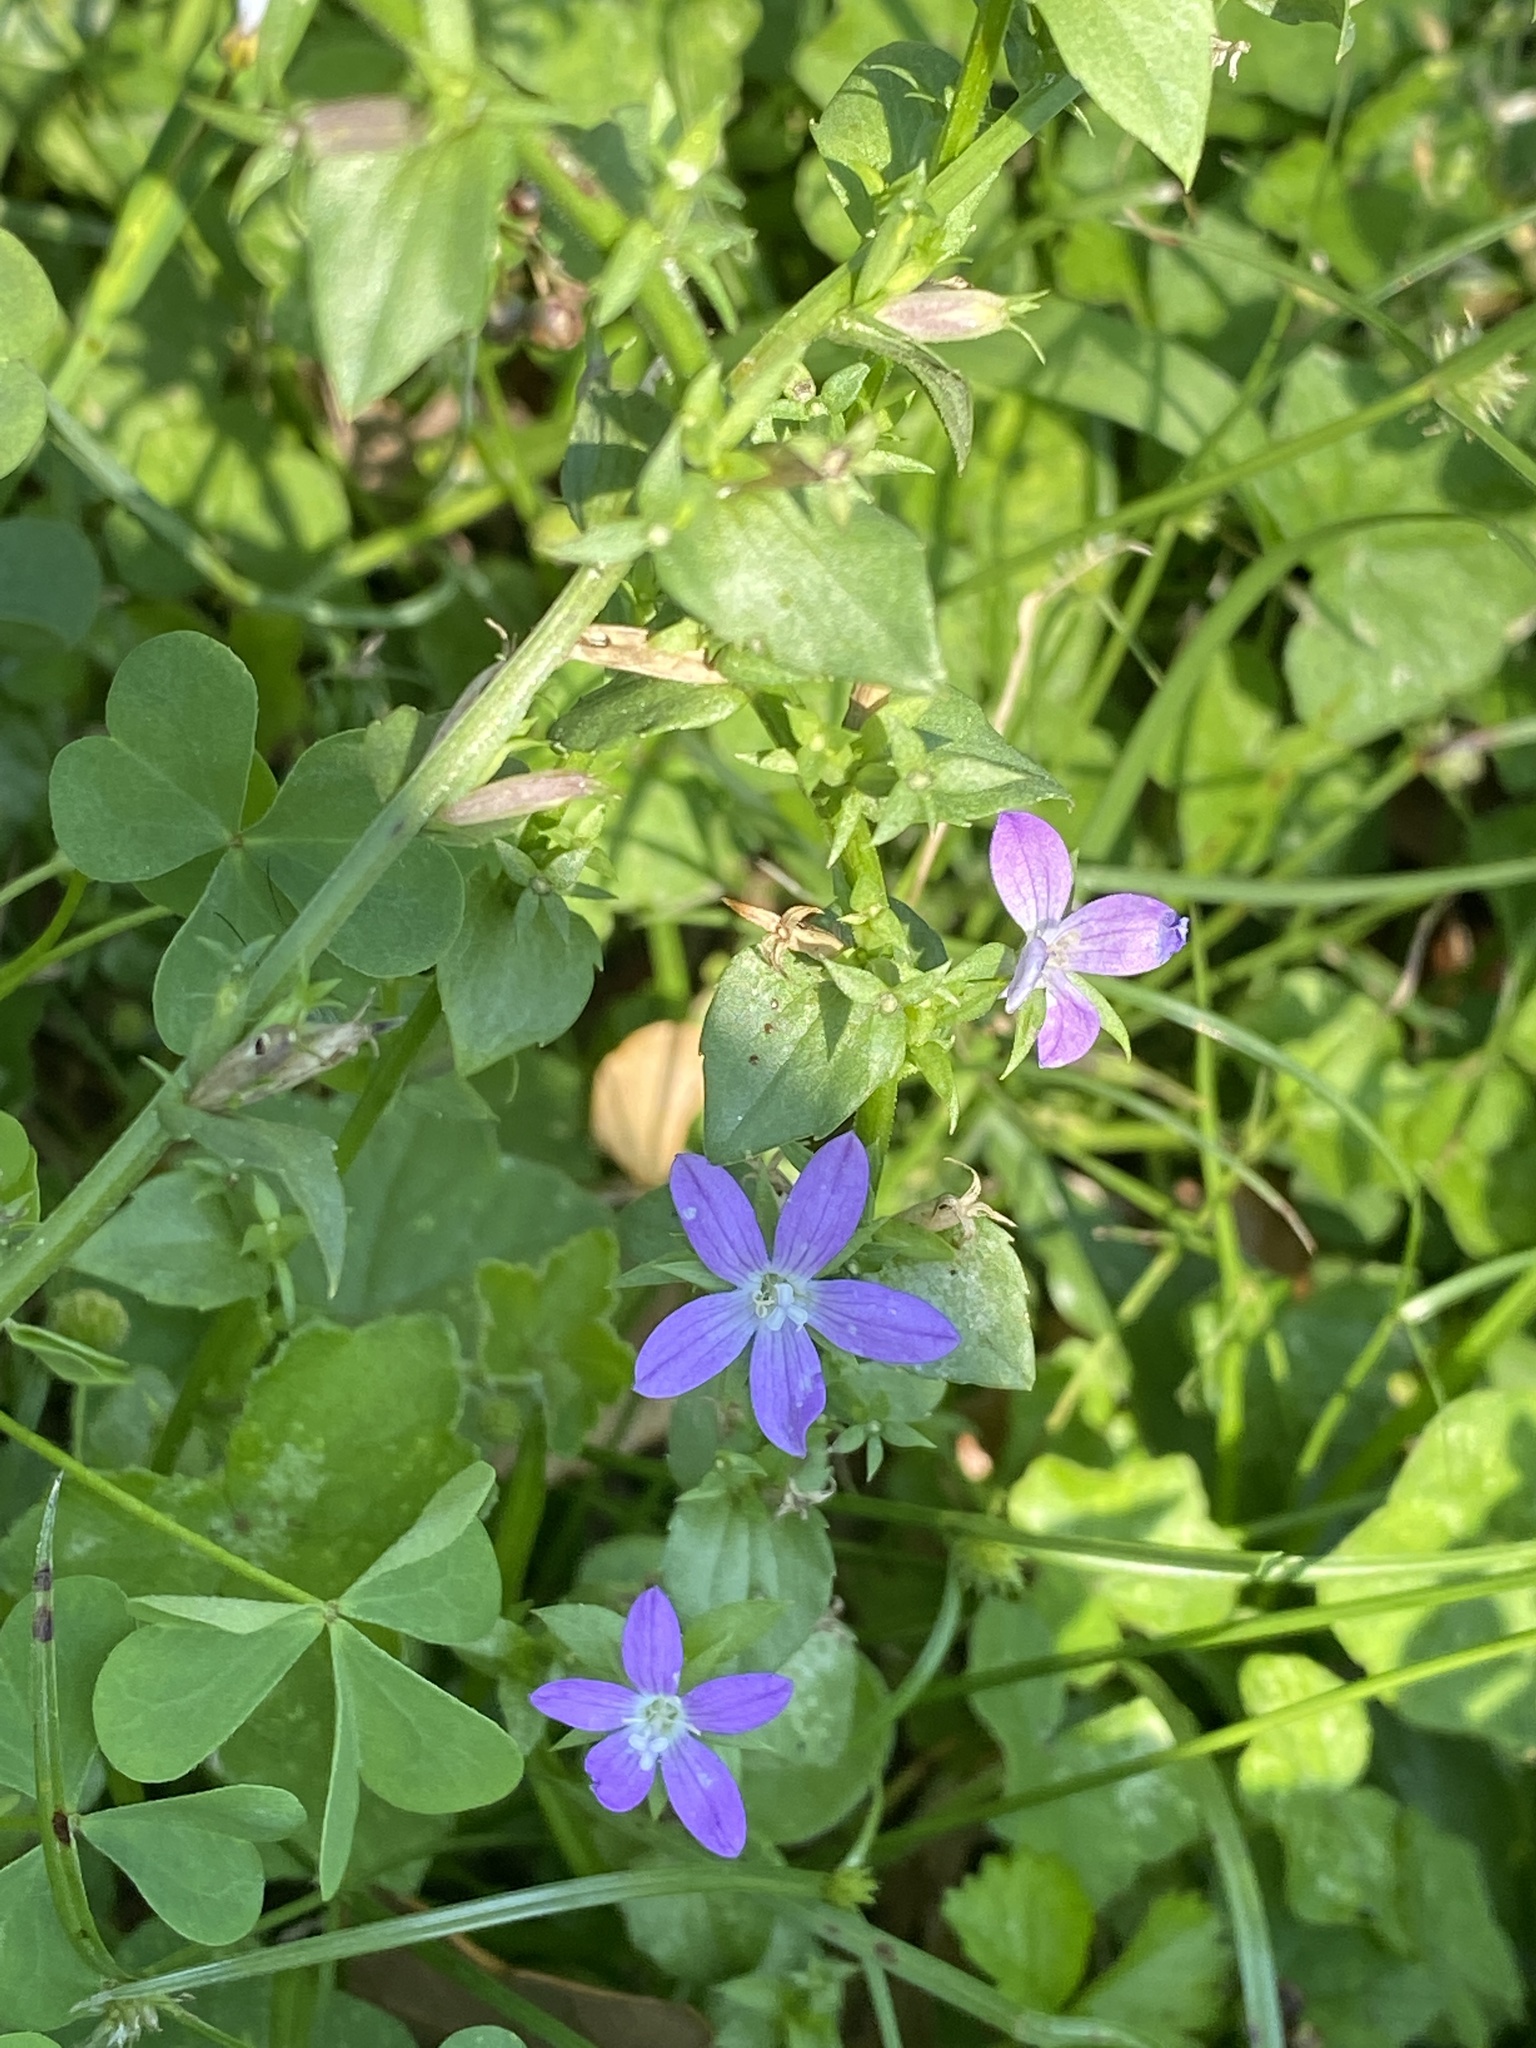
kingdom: Plantae
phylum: Tracheophyta
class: Magnoliopsida
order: Asterales
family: Campanulaceae
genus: Triodanis
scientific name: Triodanis perfoliata
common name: Clasping venus' looking-glass
